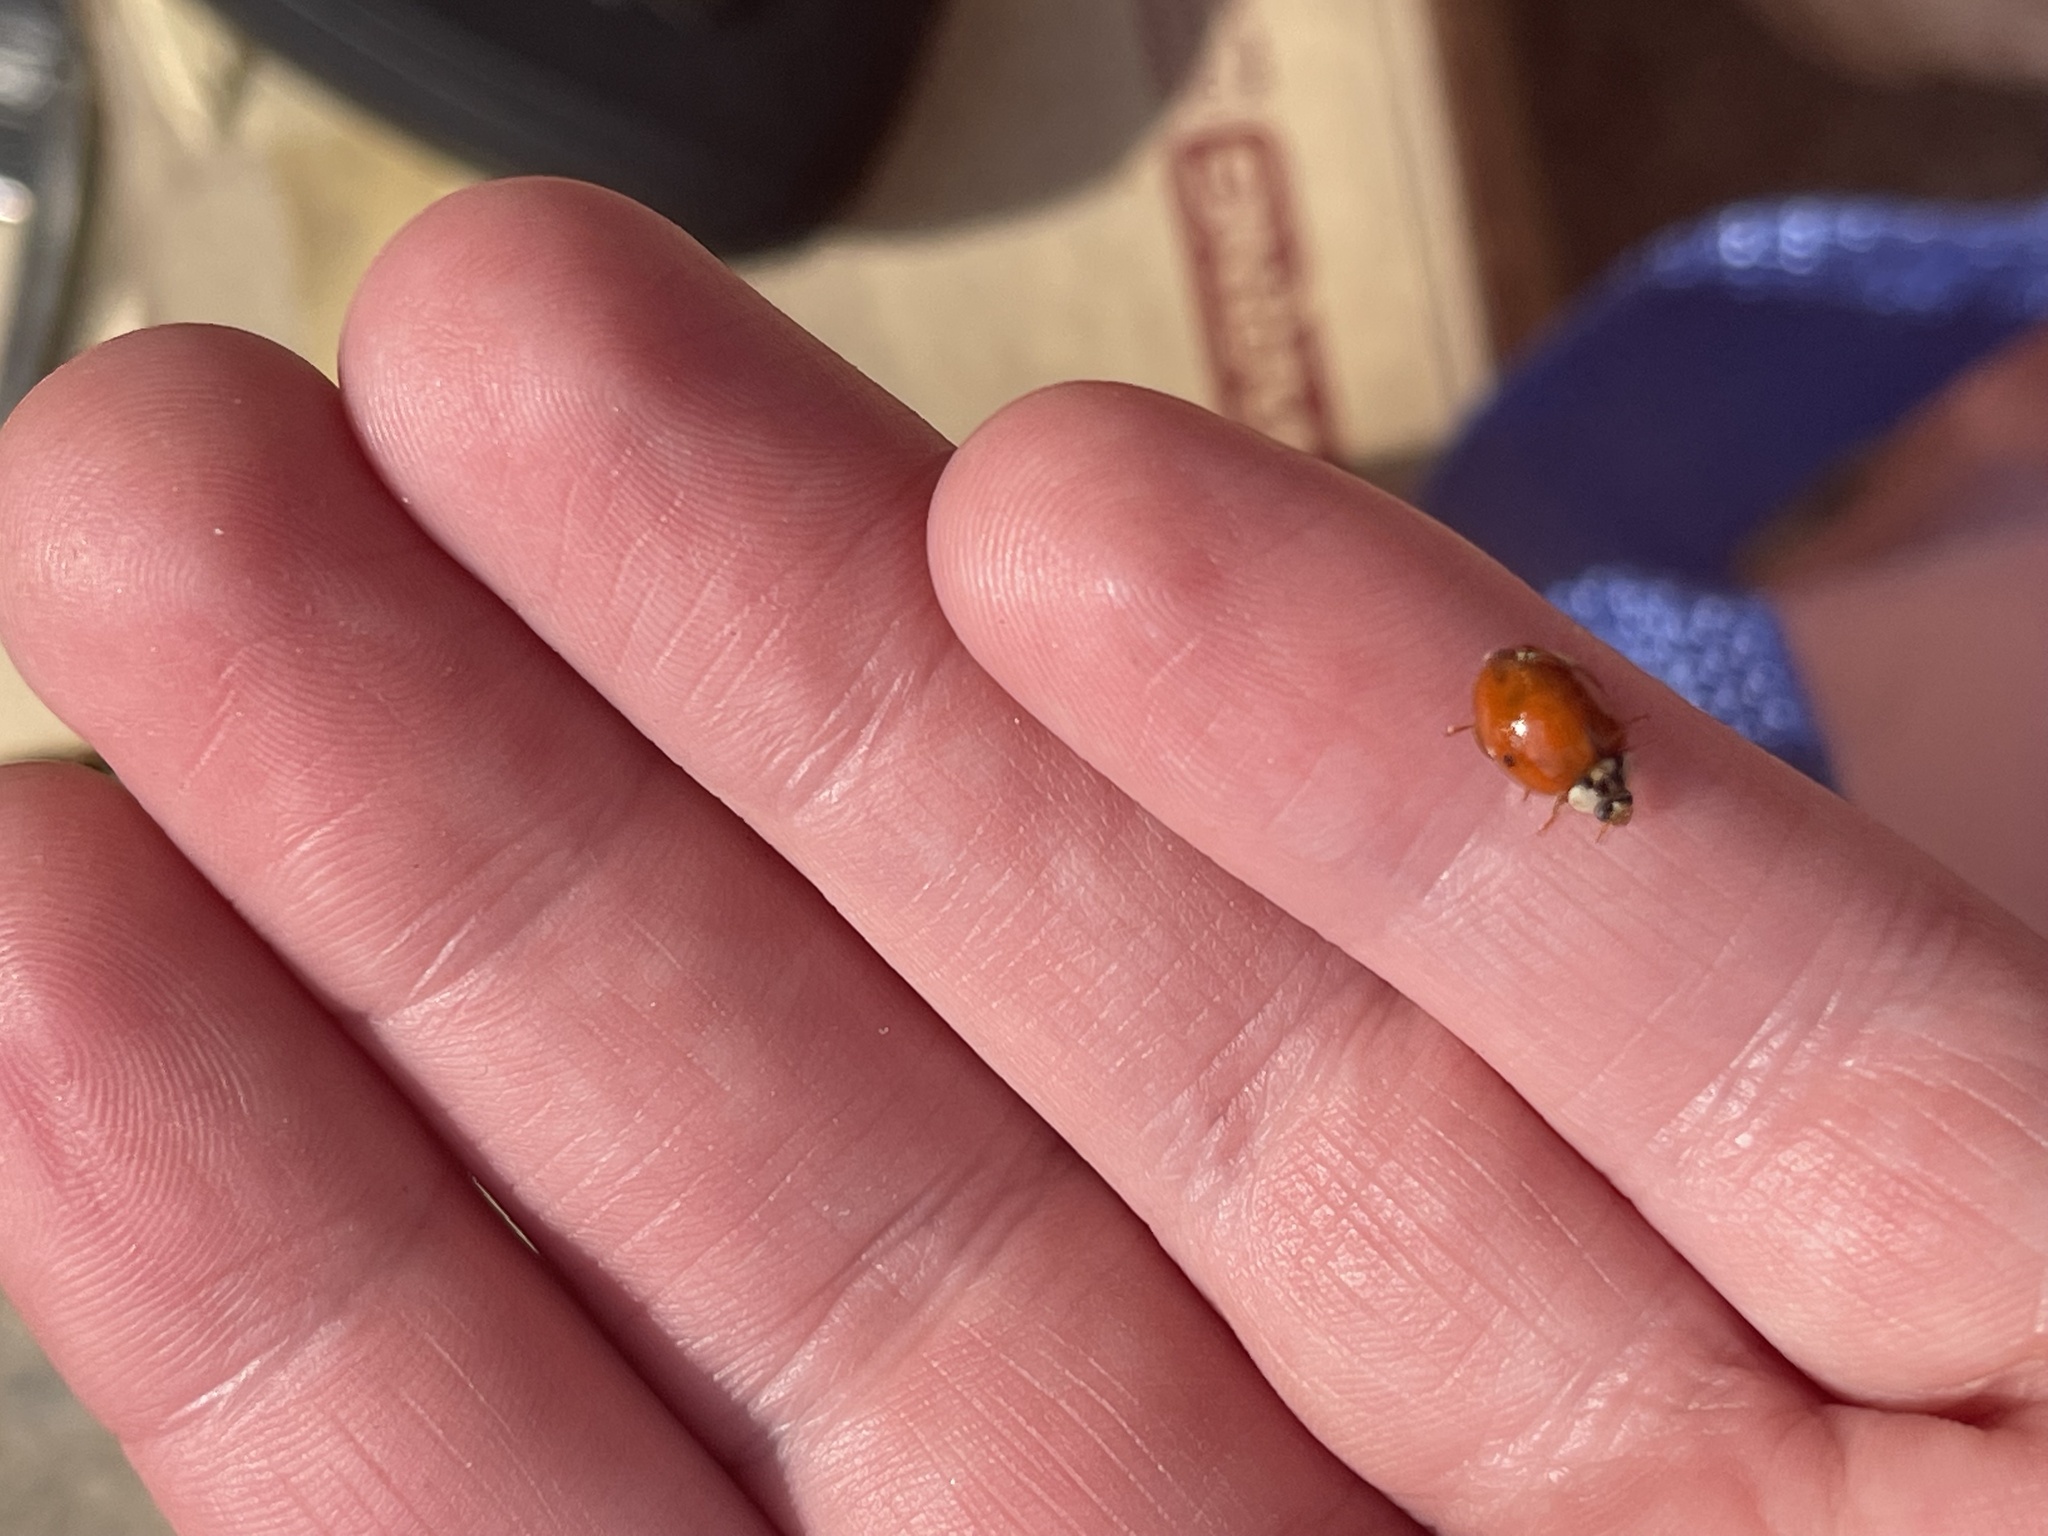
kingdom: Fungi
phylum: Ascomycota
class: Laboulbeniomycetes
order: Laboulbeniales
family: Laboulbeniaceae
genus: Hesperomyces
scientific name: Hesperomyces harmoniae
